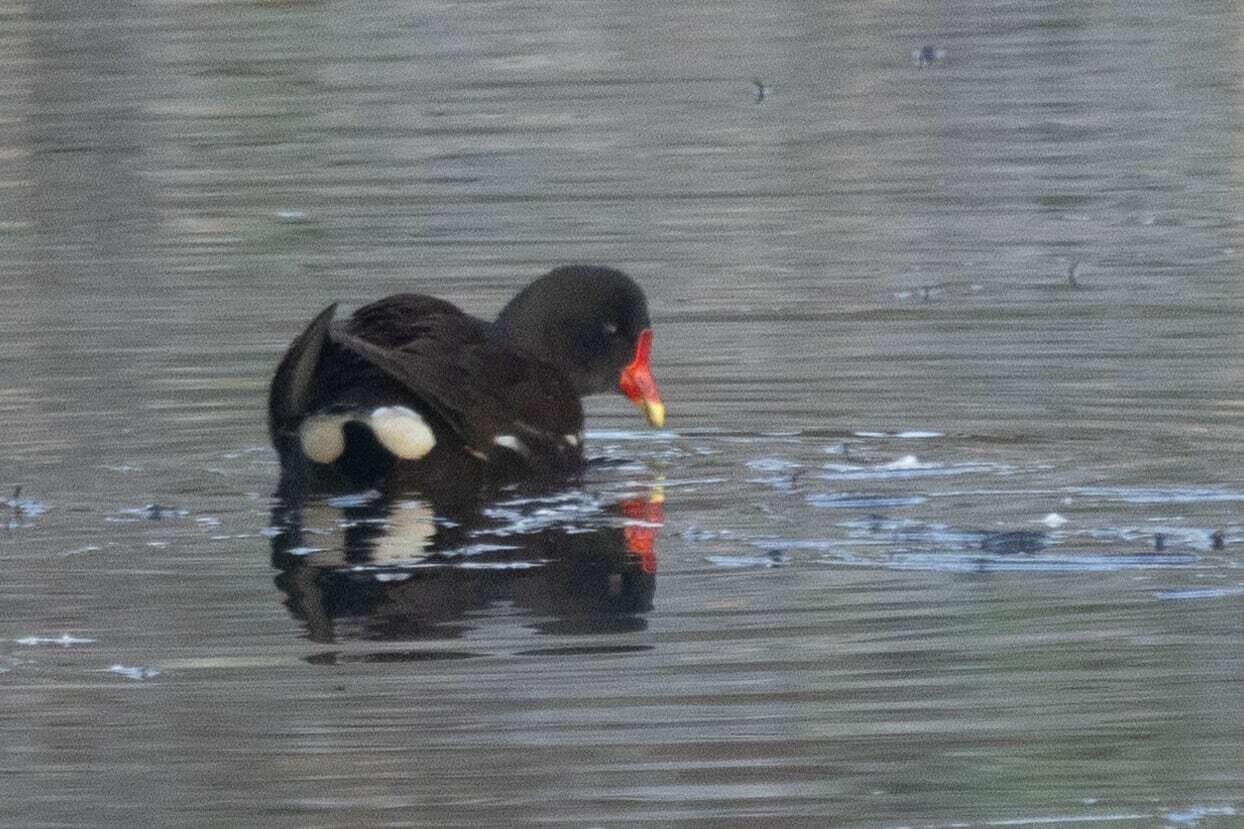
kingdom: Animalia
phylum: Chordata
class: Aves
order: Gruiformes
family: Rallidae
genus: Gallinula
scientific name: Gallinula chloropus
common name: Common moorhen
